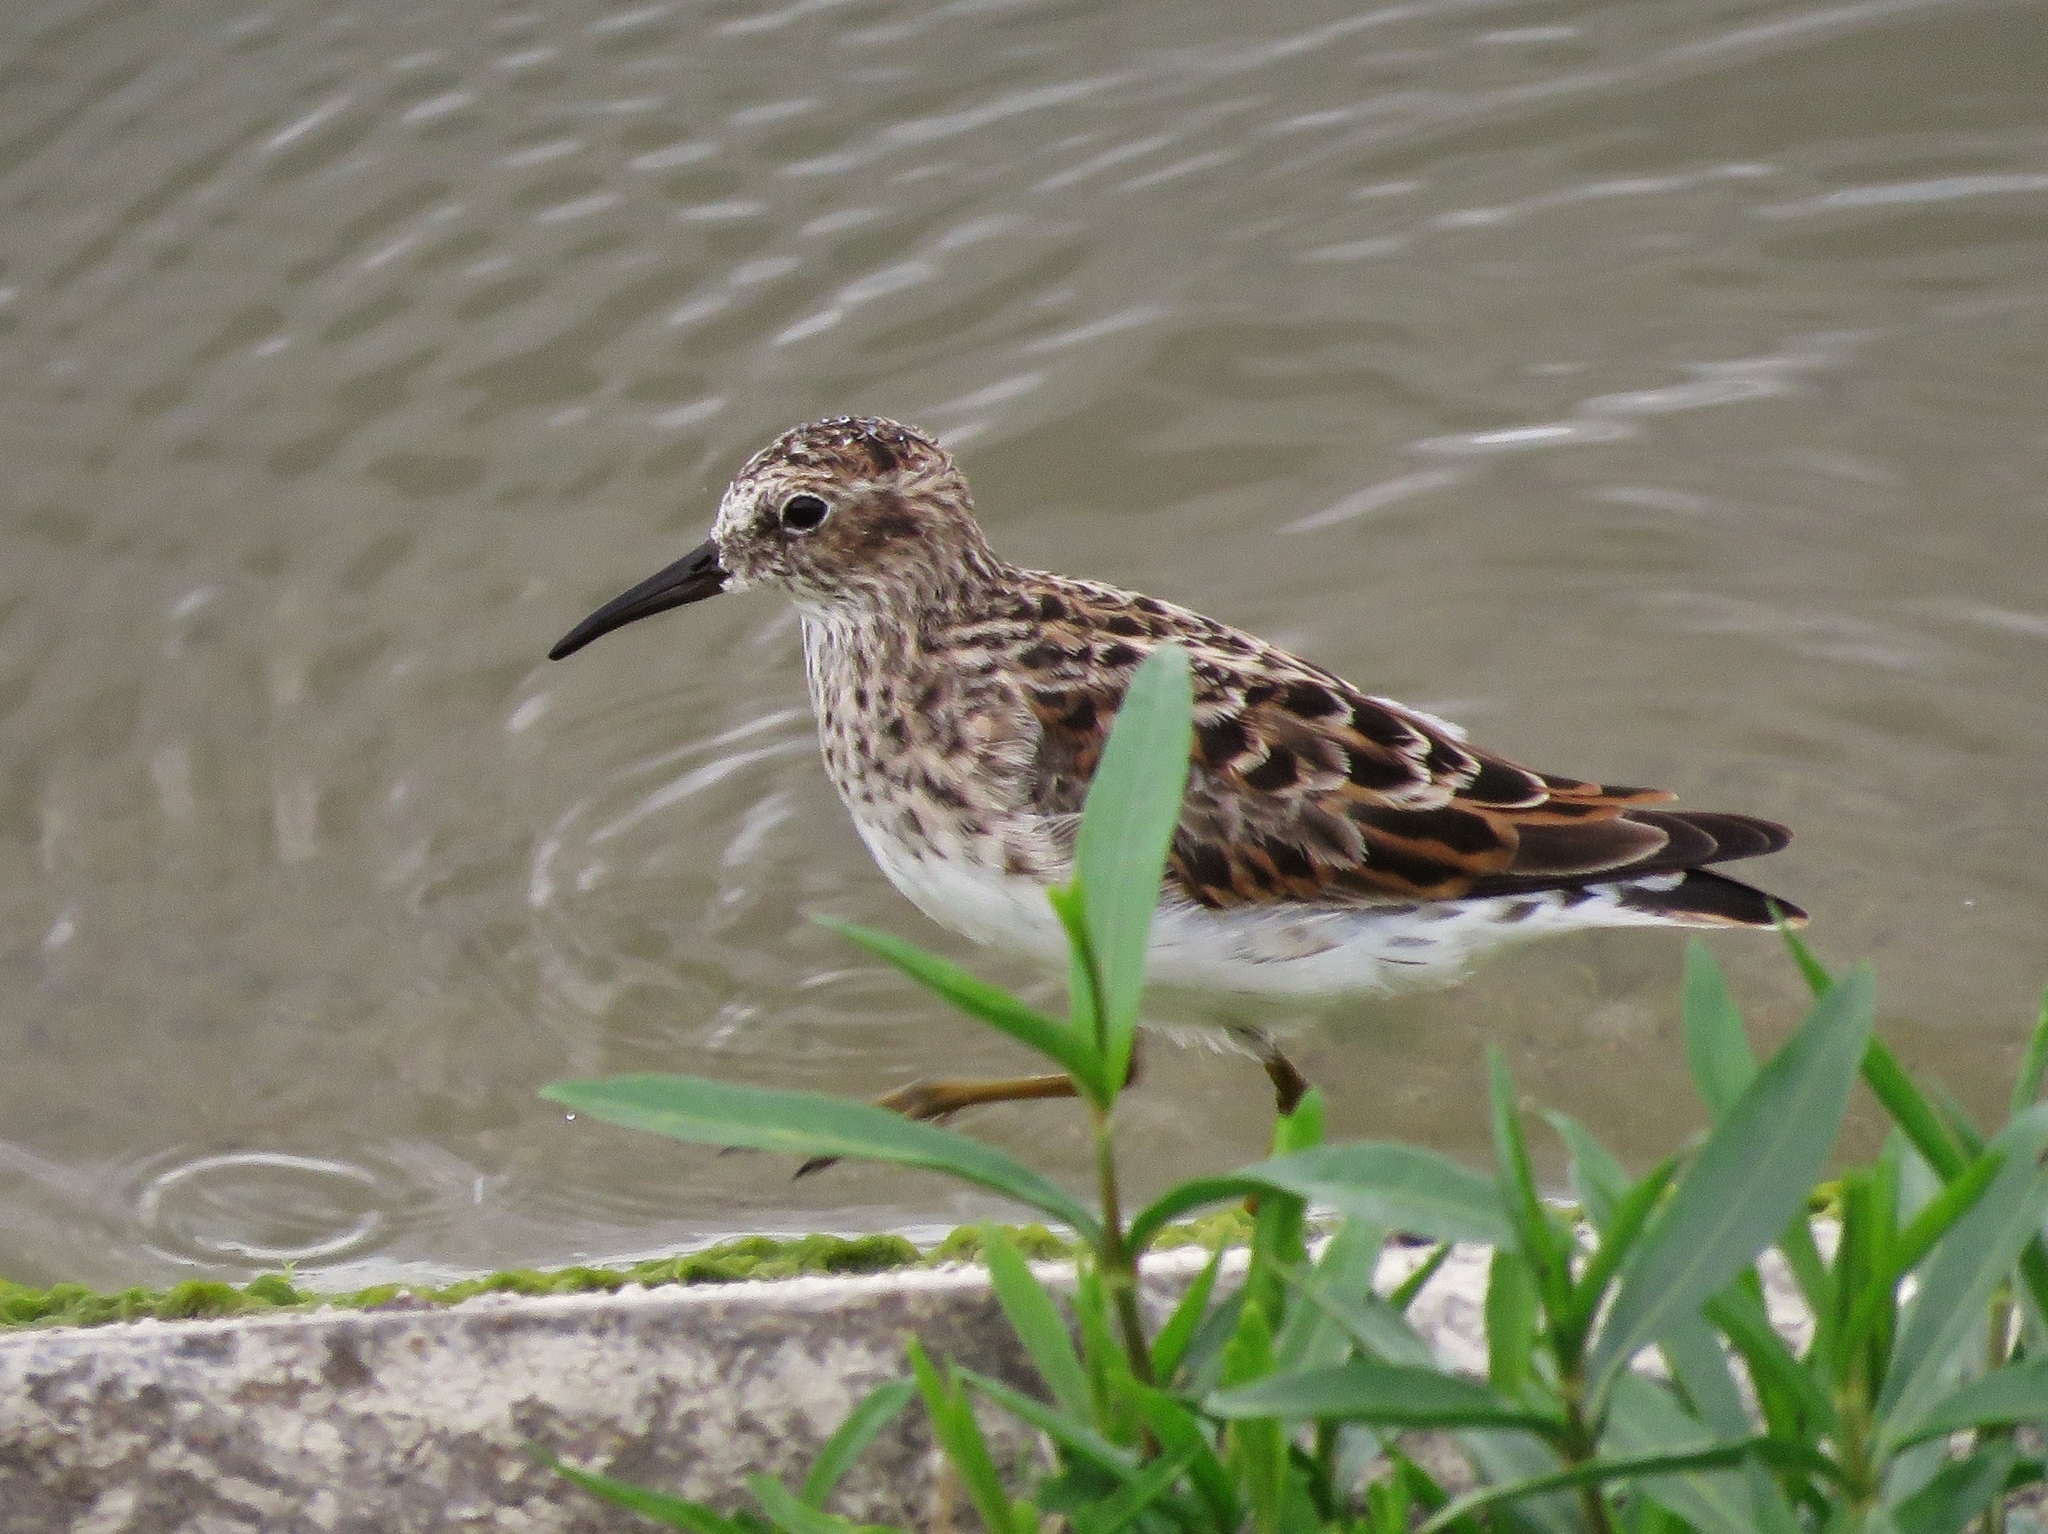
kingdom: Animalia
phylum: Chordata
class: Aves
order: Charadriiformes
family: Scolopacidae
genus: Calidris
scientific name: Calidris minutilla
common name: Least sandpiper
